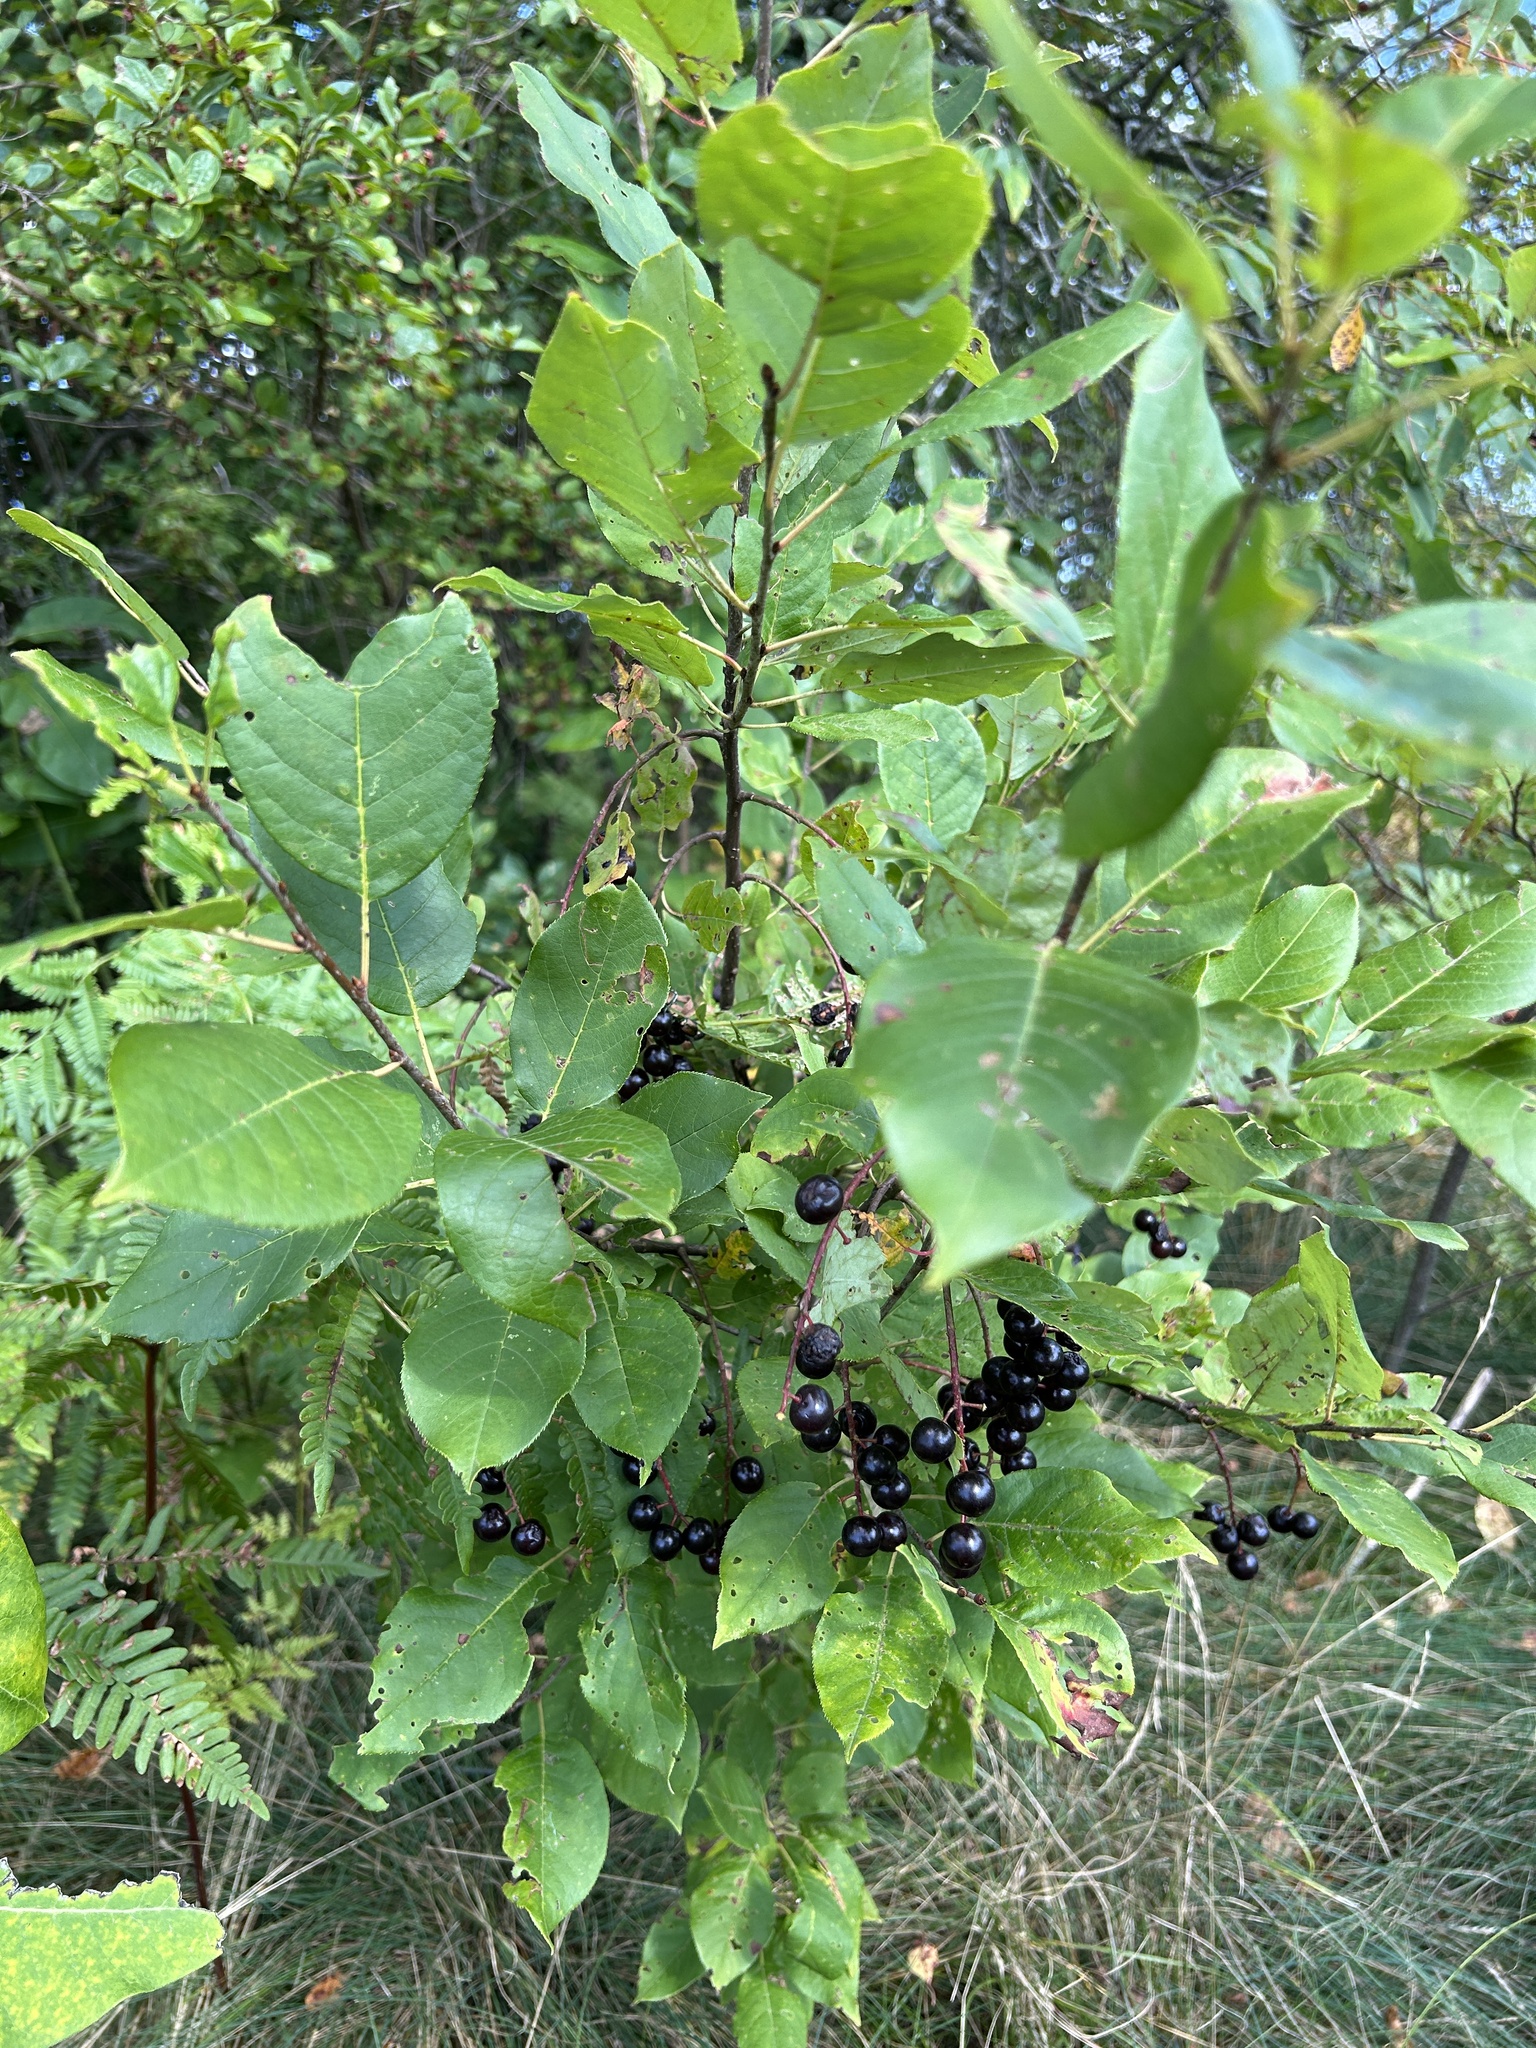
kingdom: Plantae
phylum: Tracheophyta
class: Magnoliopsida
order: Rosales
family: Rosaceae
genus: Prunus
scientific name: Prunus virginiana
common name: Chokecherry
